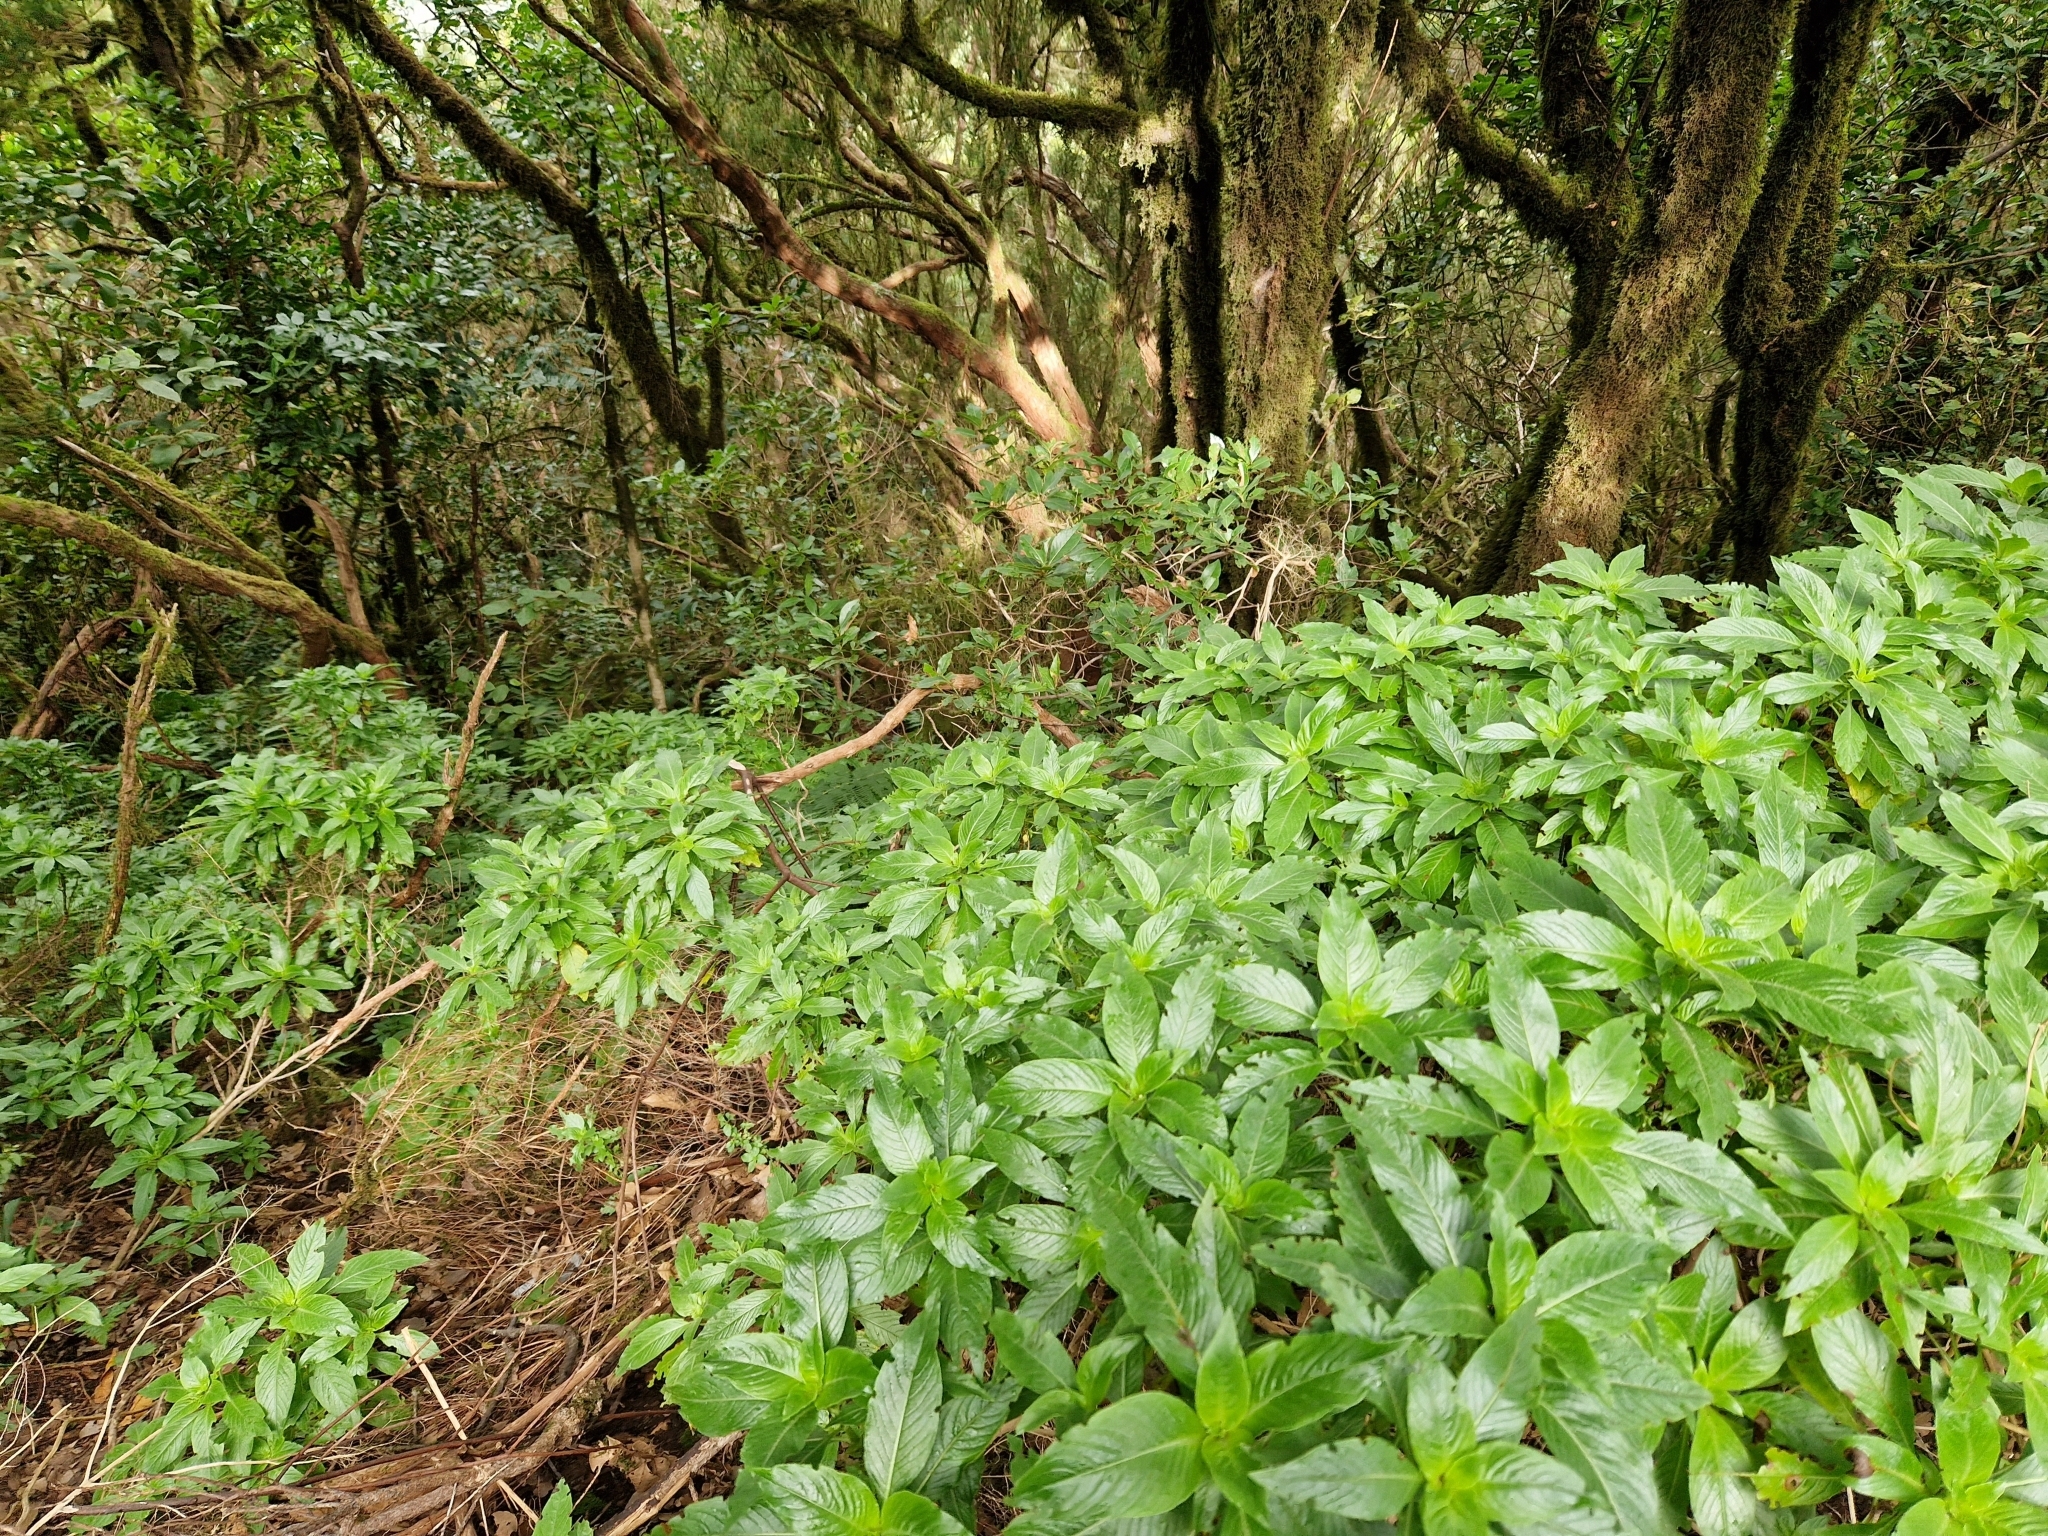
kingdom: Plantae
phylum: Tracheophyta
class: Magnoliopsida
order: Gentianales
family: Rubiaceae
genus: Phyllis
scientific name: Phyllis nobla
